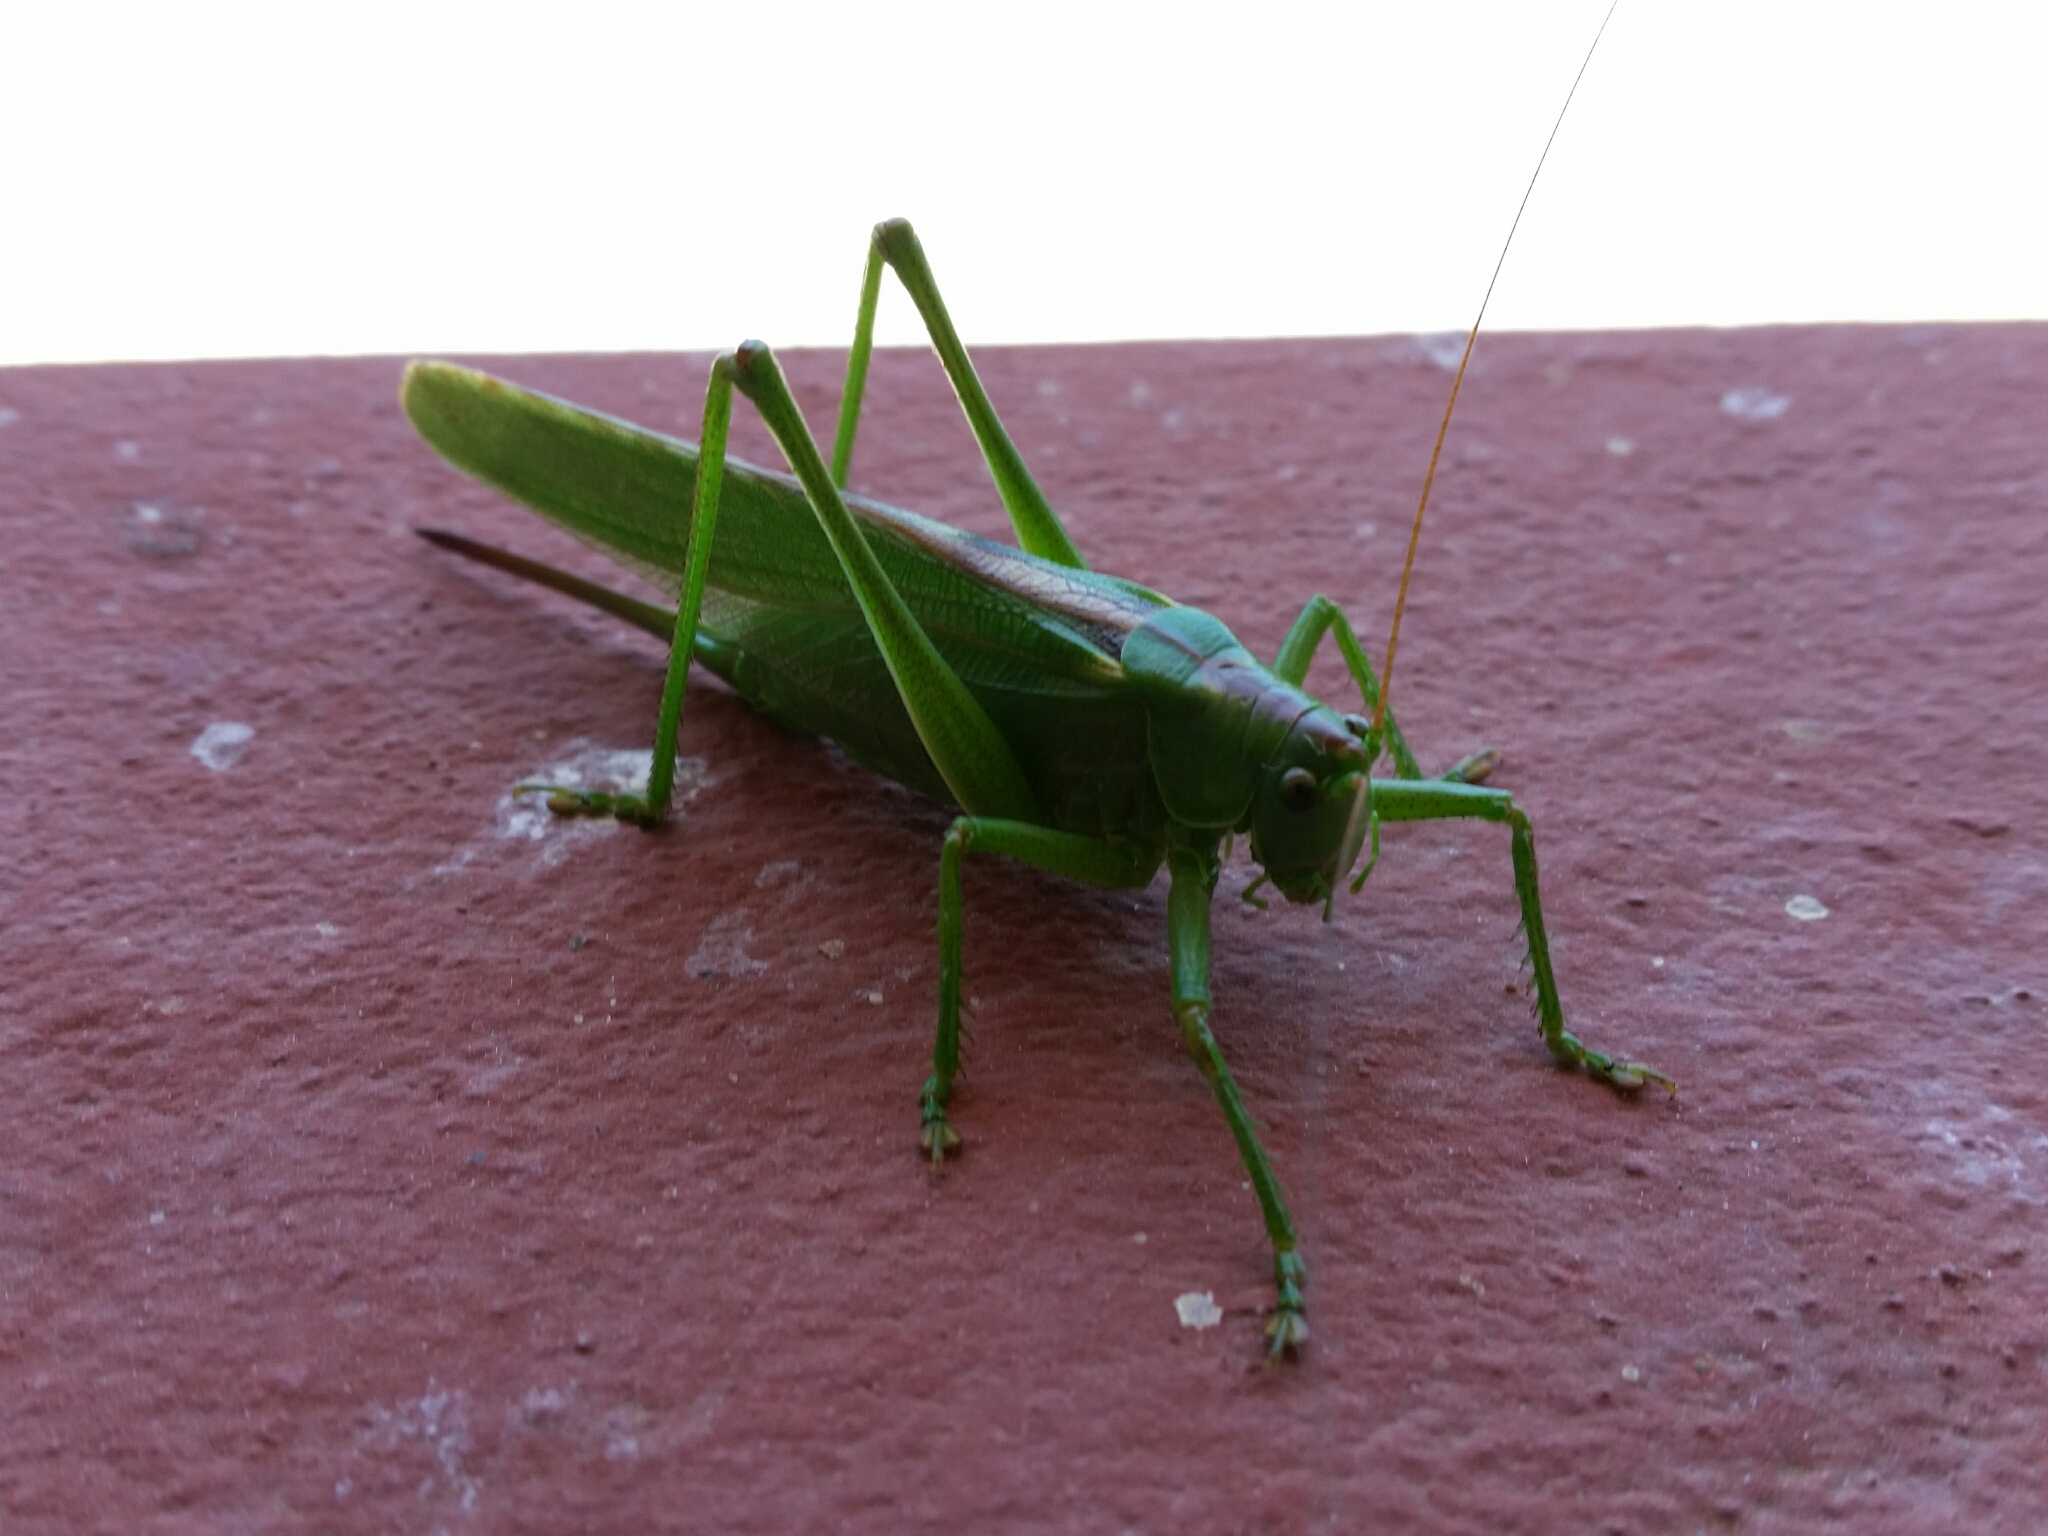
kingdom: Animalia
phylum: Arthropoda
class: Insecta
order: Orthoptera
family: Tettigoniidae
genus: Tettigonia
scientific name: Tettigonia viridissima
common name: Great green bush-cricket
